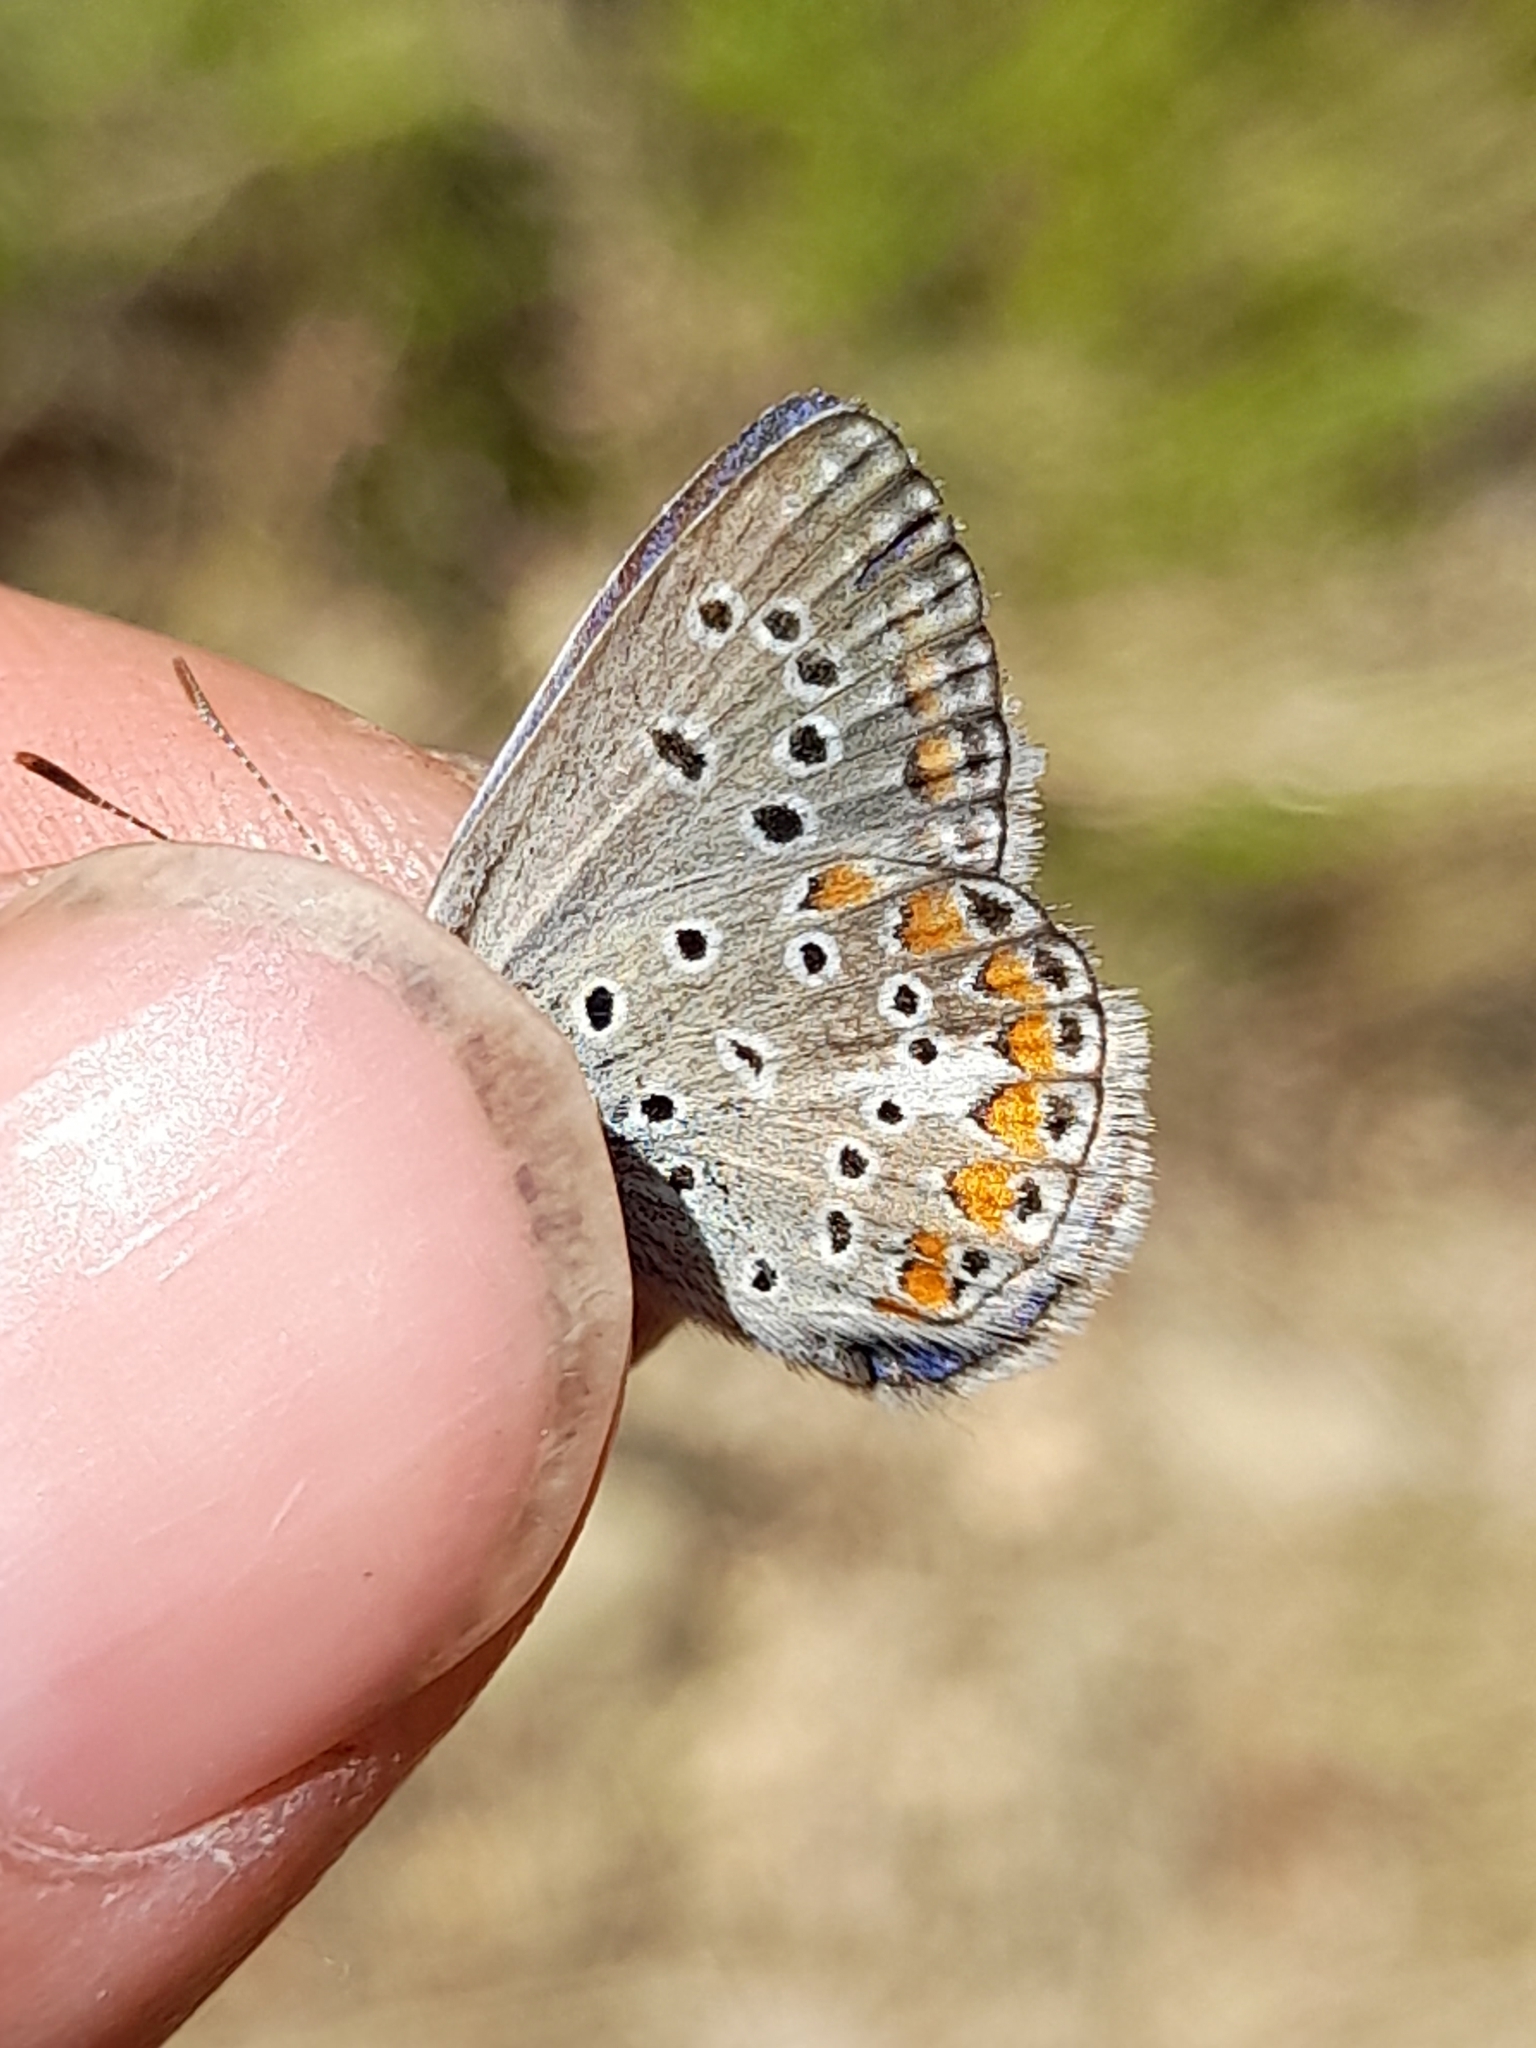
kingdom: Animalia
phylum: Arthropoda
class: Insecta
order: Lepidoptera
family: Lycaenidae
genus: Polyommatus
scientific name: Polyommatus thersites
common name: Chapman's blue
